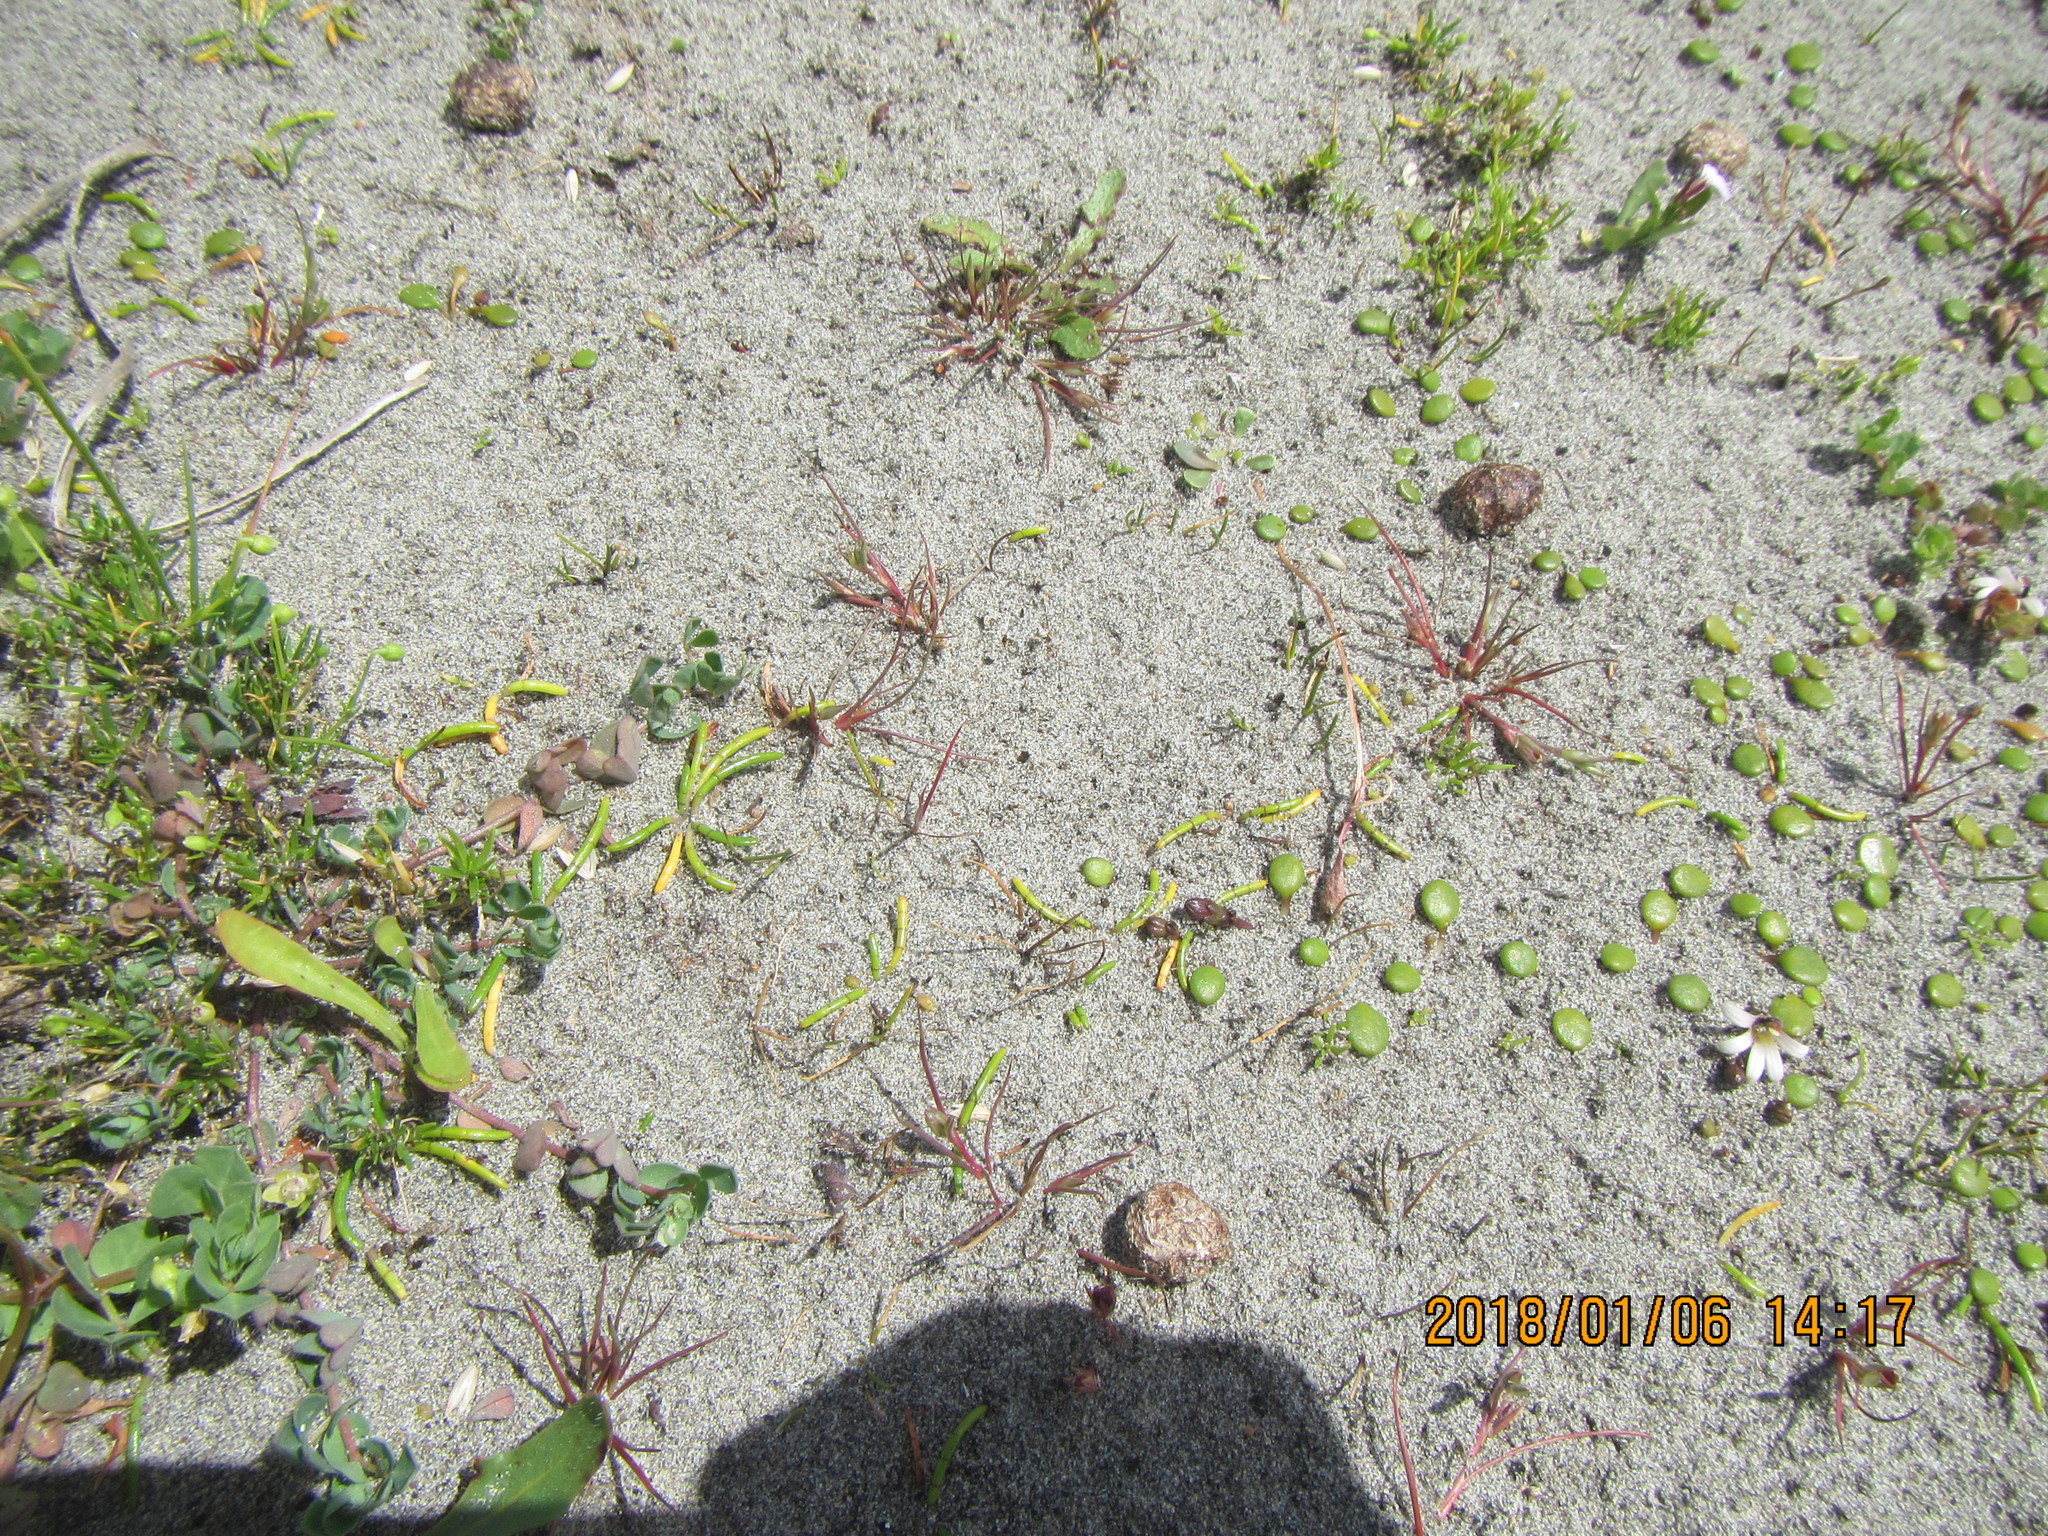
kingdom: Plantae
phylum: Tracheophyta
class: Magnoliopsida
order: Apiales
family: Apiaceae
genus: Lilaeopsis
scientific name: Lilaeopsis novae-zelandiae
